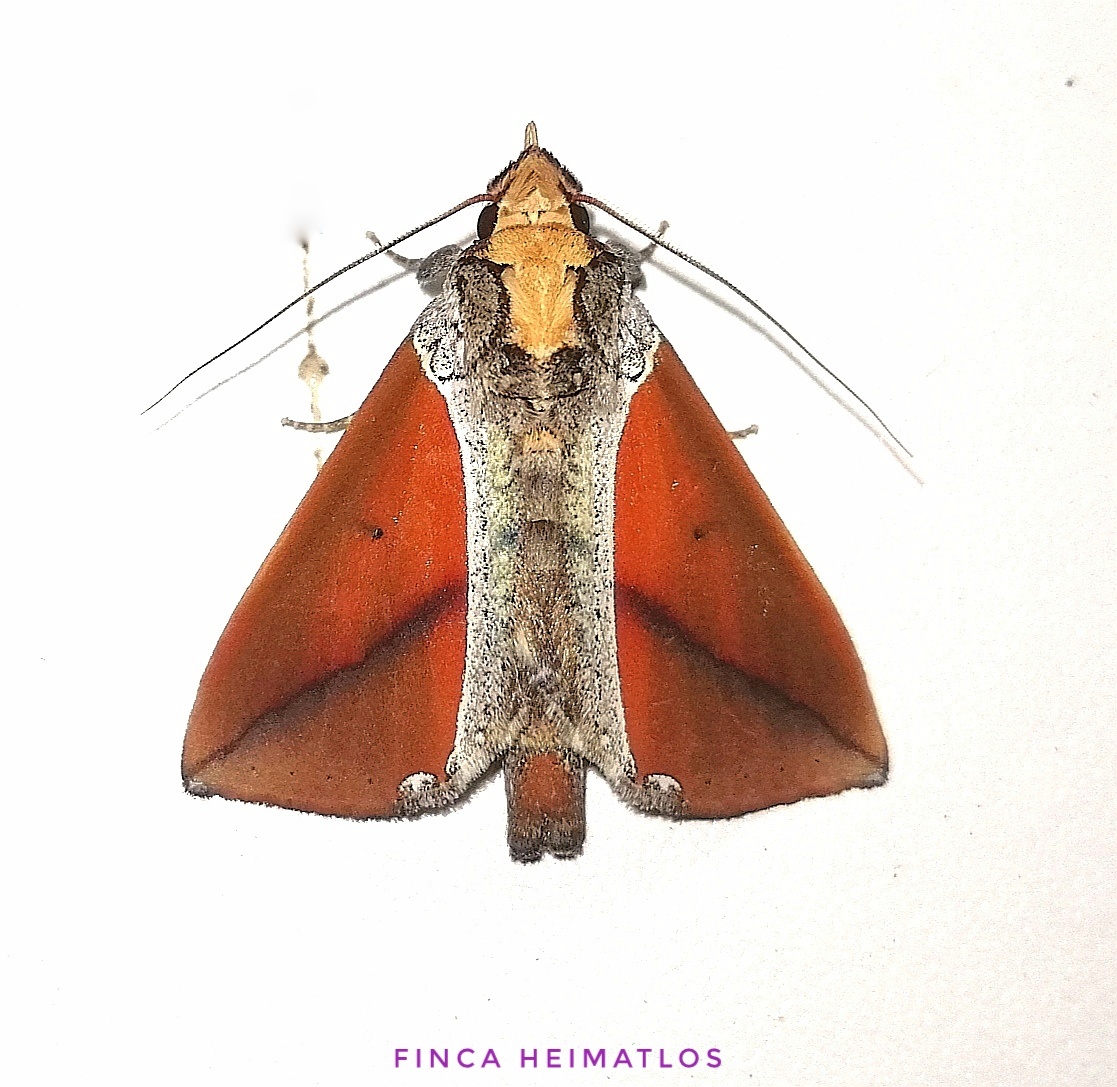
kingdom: Animalia
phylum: Arthropoda
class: Insecta
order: Lepidoptera
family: Notodontidae
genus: Strophocerus
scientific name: Strophocerus thermesia
